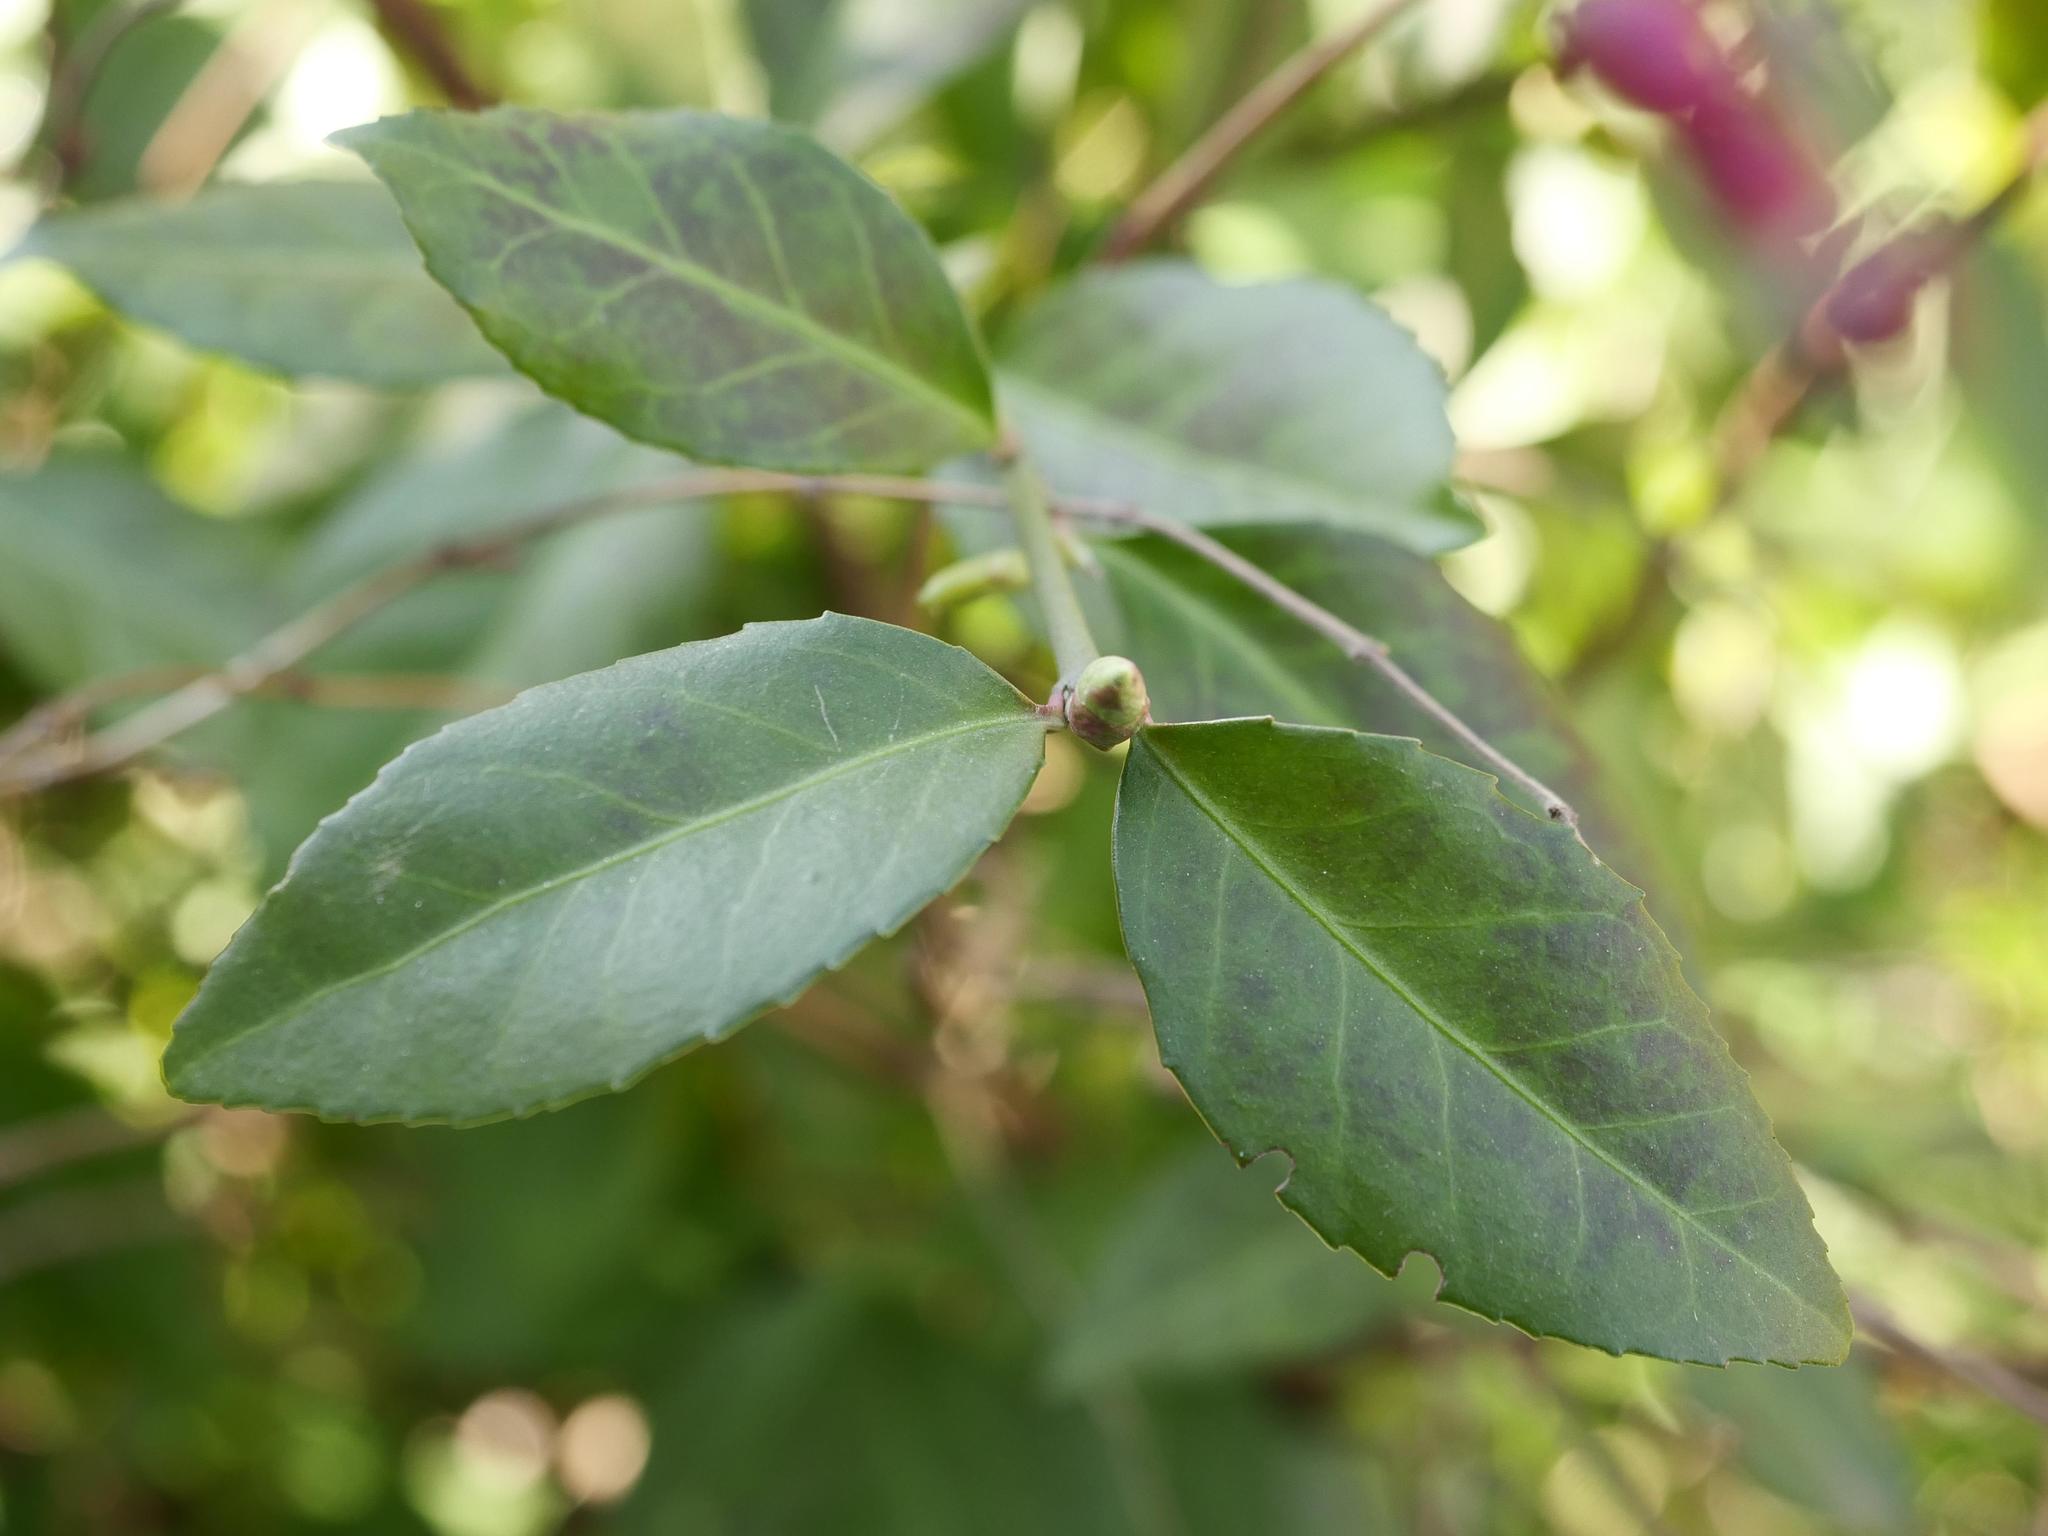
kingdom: Plantae
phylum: Tracheophyta
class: Magnoliopsida
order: Celastrales
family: Celastraceae
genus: Euonymus
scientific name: Euonymus fortunei
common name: Climbing euonymus
